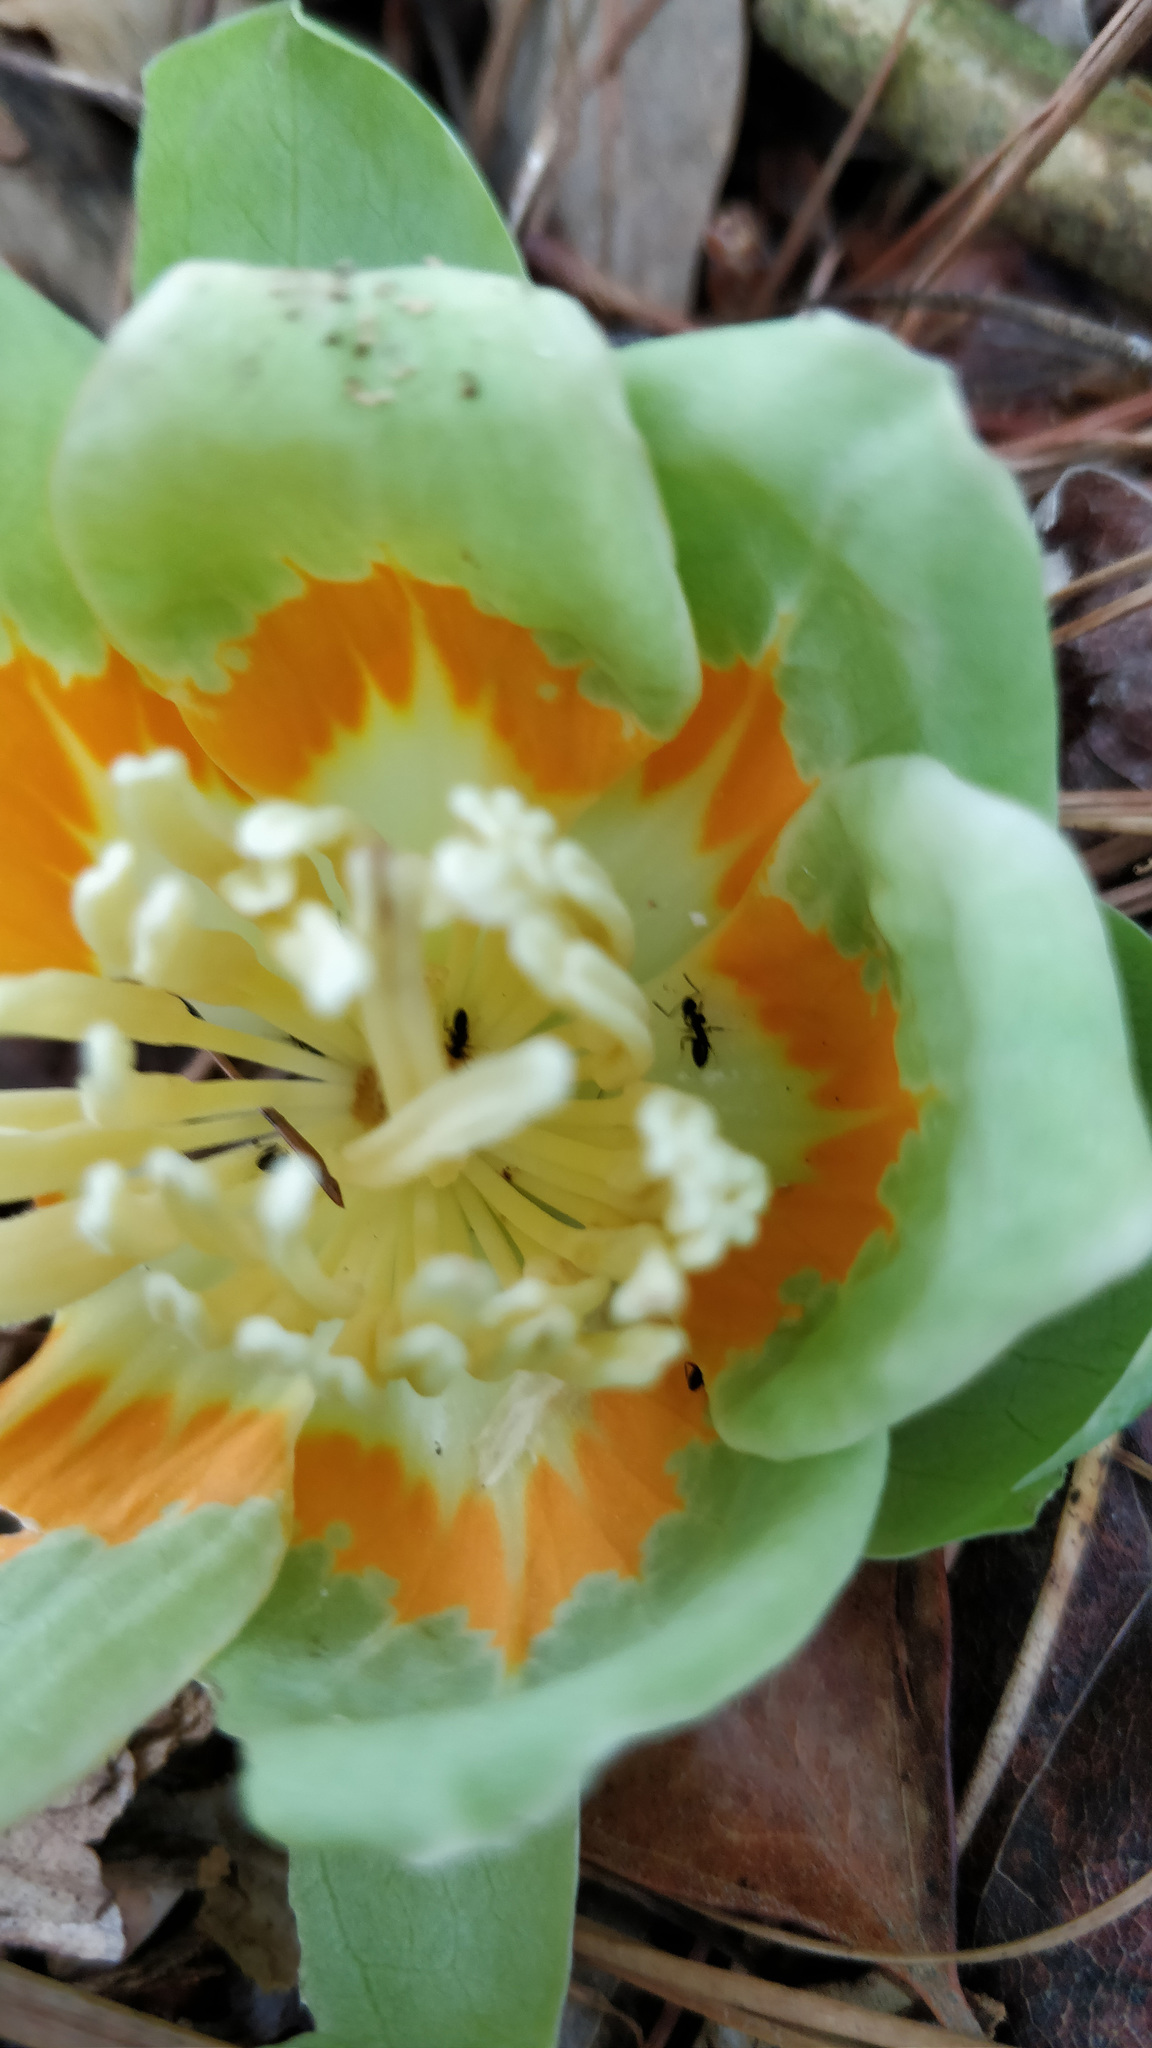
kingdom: Plantae
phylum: Tracheophyta
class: Magnoliopsida
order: Magnoliales
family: Magnoliaceae
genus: Liriodendron
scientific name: Liriodendron tulipifera
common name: Tulip tree
